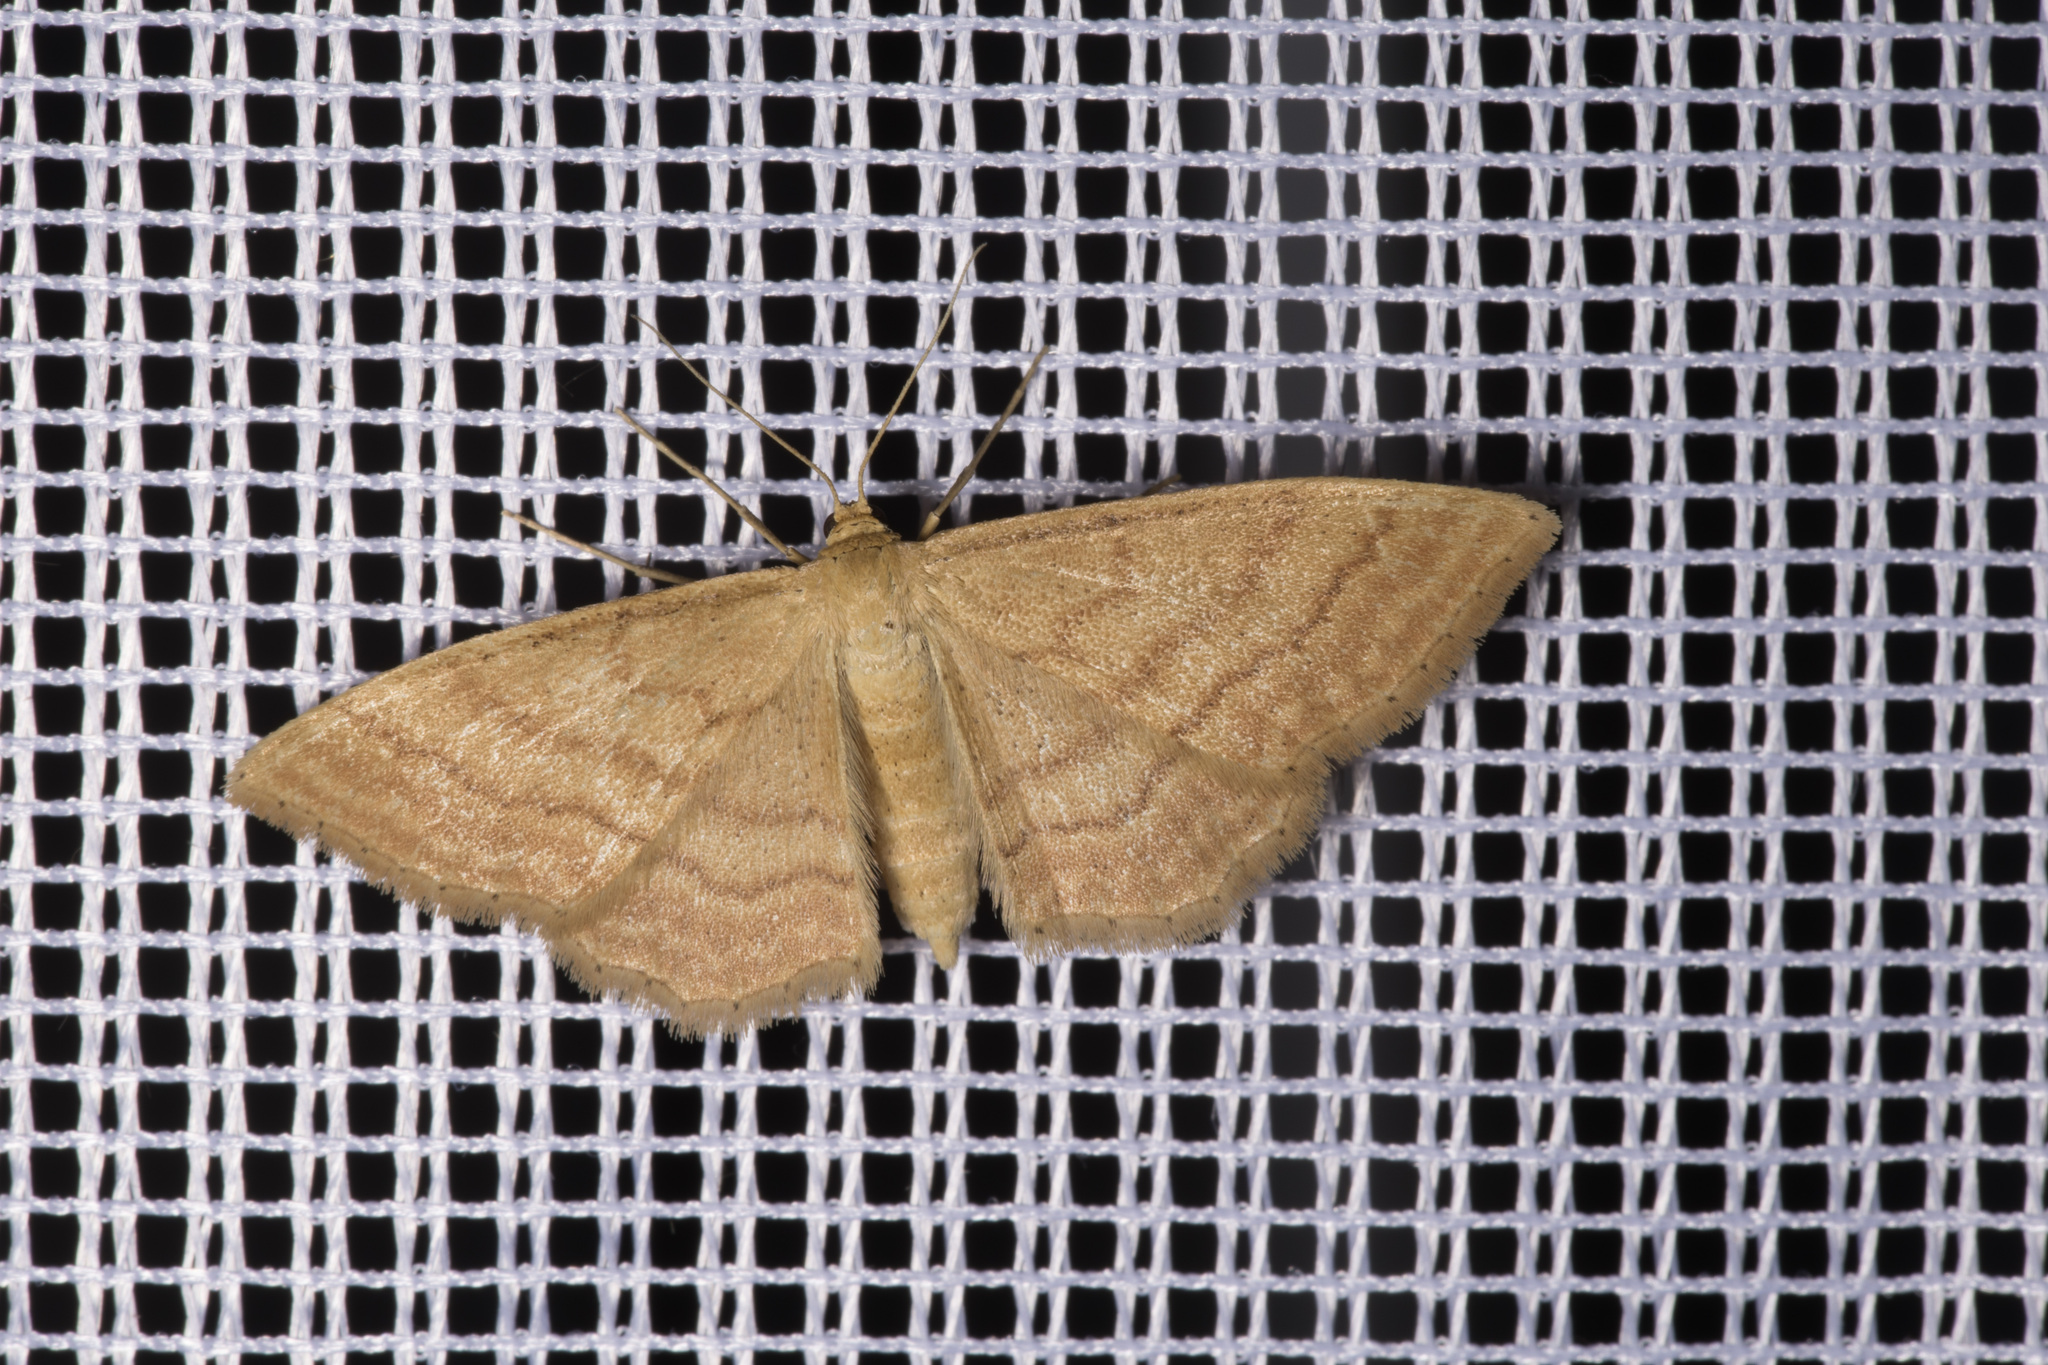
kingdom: Animalia
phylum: Arthropoda
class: Insecta
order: Lepidoptera
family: Geometridae
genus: Idaea
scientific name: Idaea ochrata
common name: Bright wave
